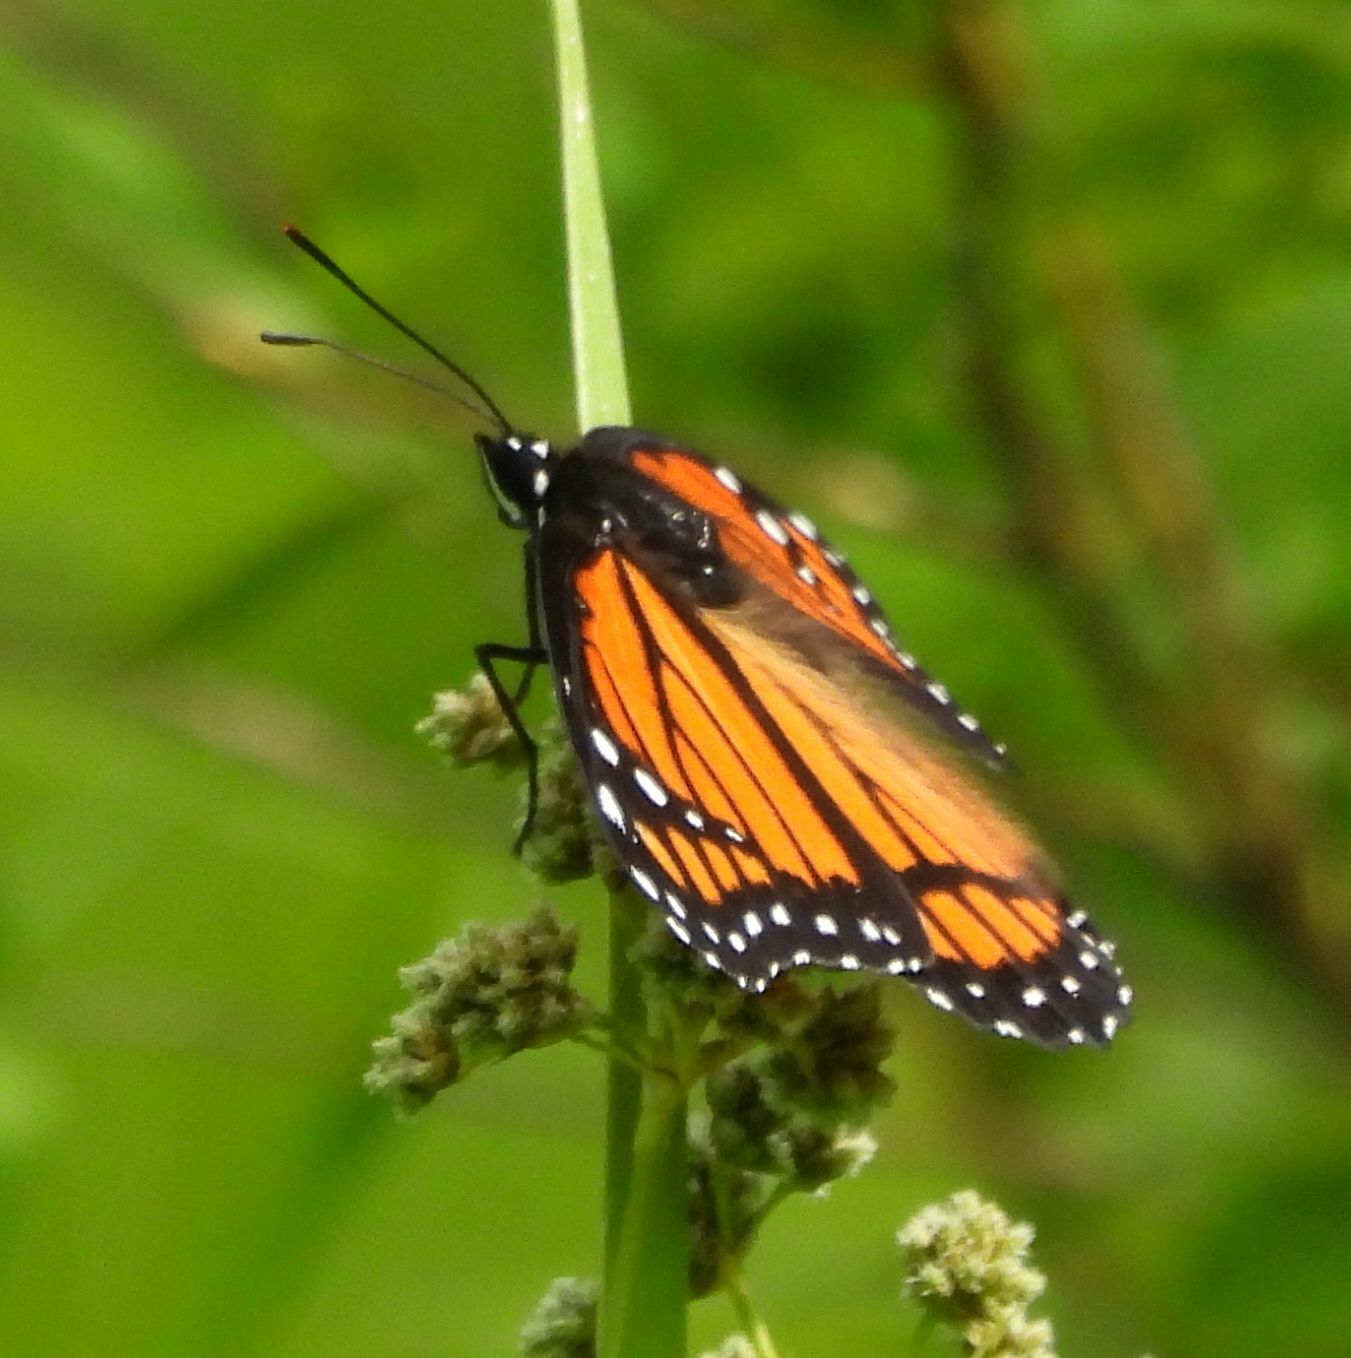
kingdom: Animalia
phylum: Arthropoda
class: Insecta
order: Lepidoptera
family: Nymphalidae
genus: Limenitis
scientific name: Limenitis archippus
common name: Viceroy
